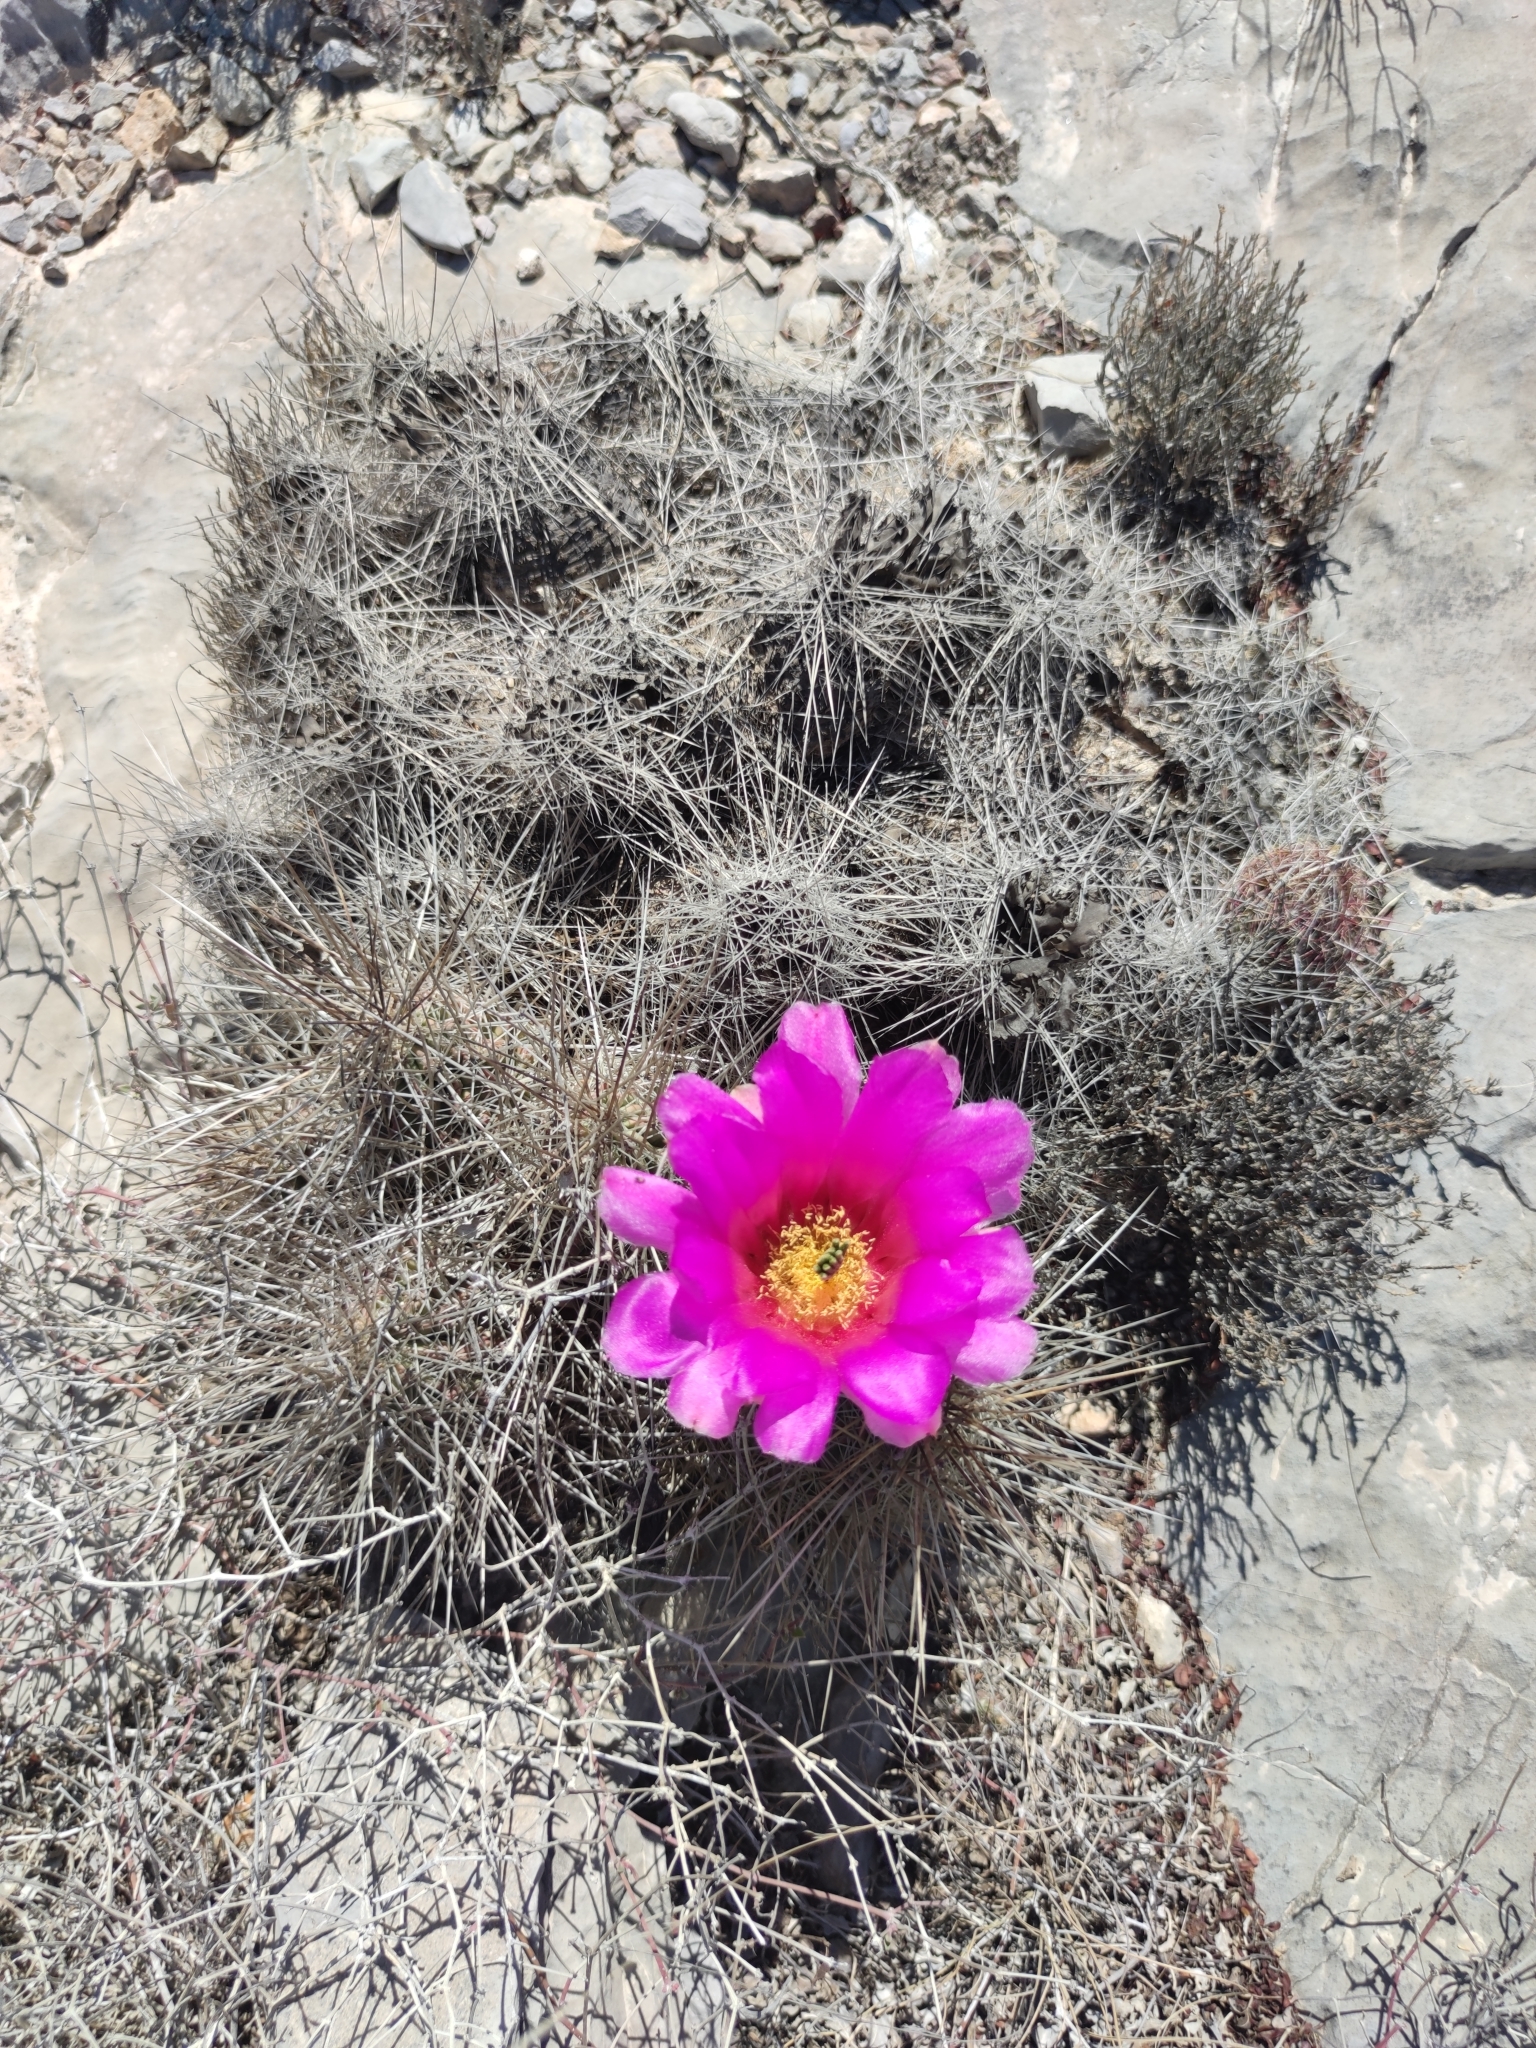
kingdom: Plantae
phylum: Tracheophyta
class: Magnoliopsida
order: Caryophyllales
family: Cactaceae
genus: Echinocereus
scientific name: Echinocereus stramineus
